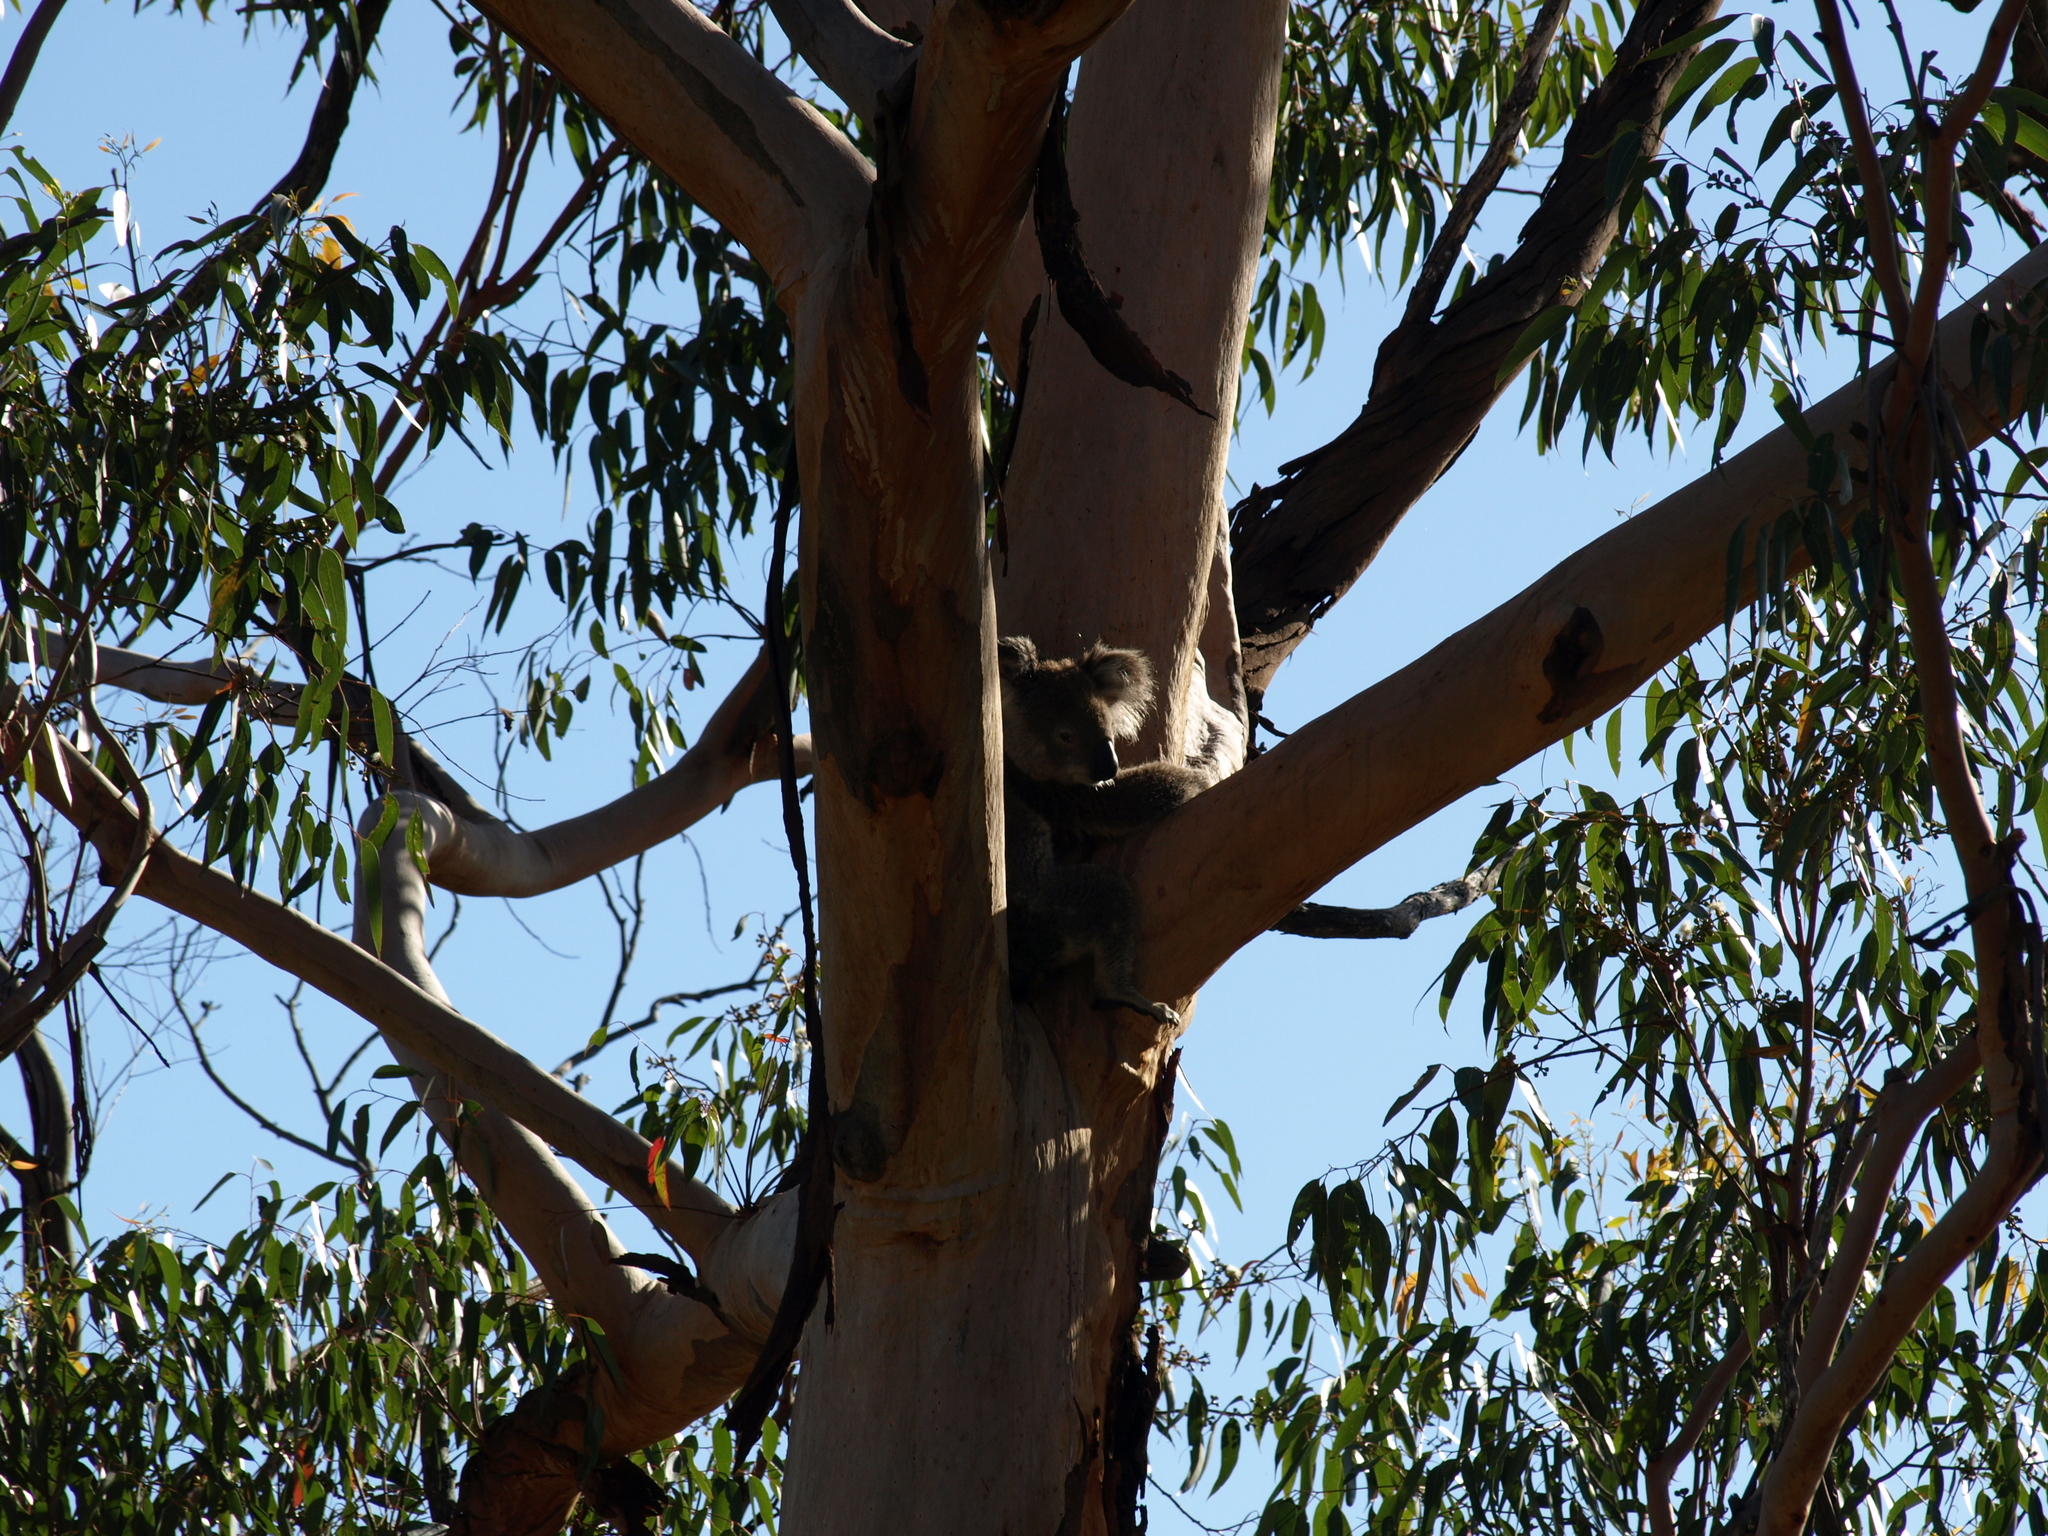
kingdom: Animalia
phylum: Chordata
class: Mammalia
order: Diprotodontia
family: Phascolarctidae
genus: Phascolarctos
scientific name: Phascolarctos cinereus
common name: Koala
